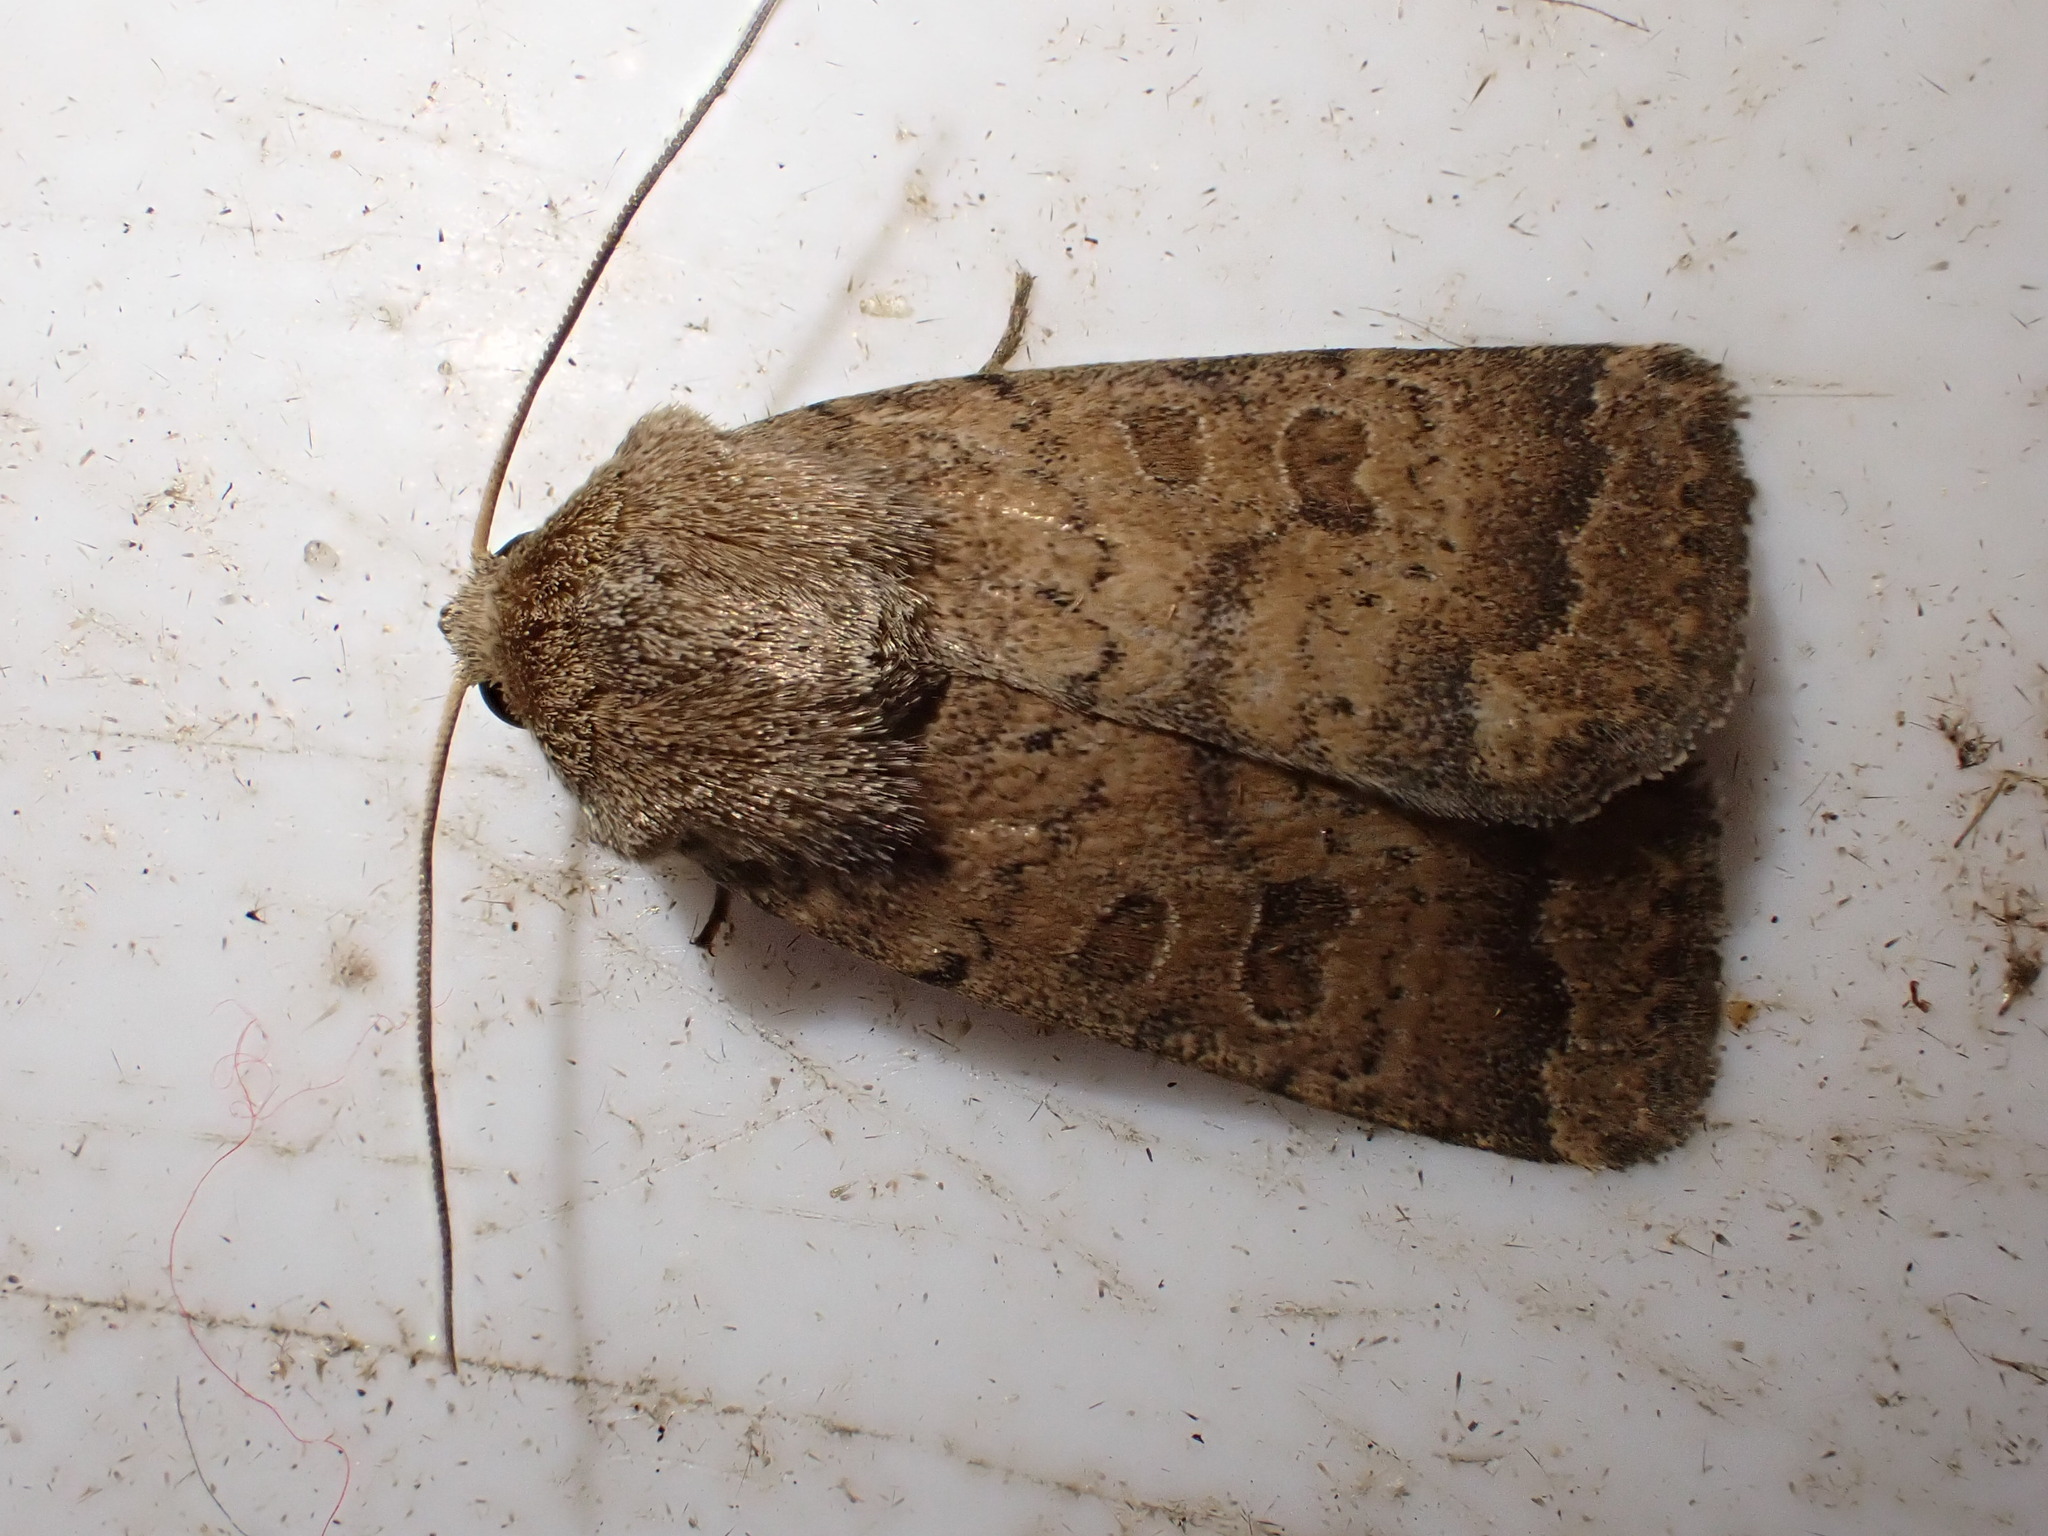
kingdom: Animalia
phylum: Arthropoda
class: Insecta
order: Lepidoptera
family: Noctuidae
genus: Hoplodrina
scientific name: Hoplodrina octogenaria
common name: Uncertain
